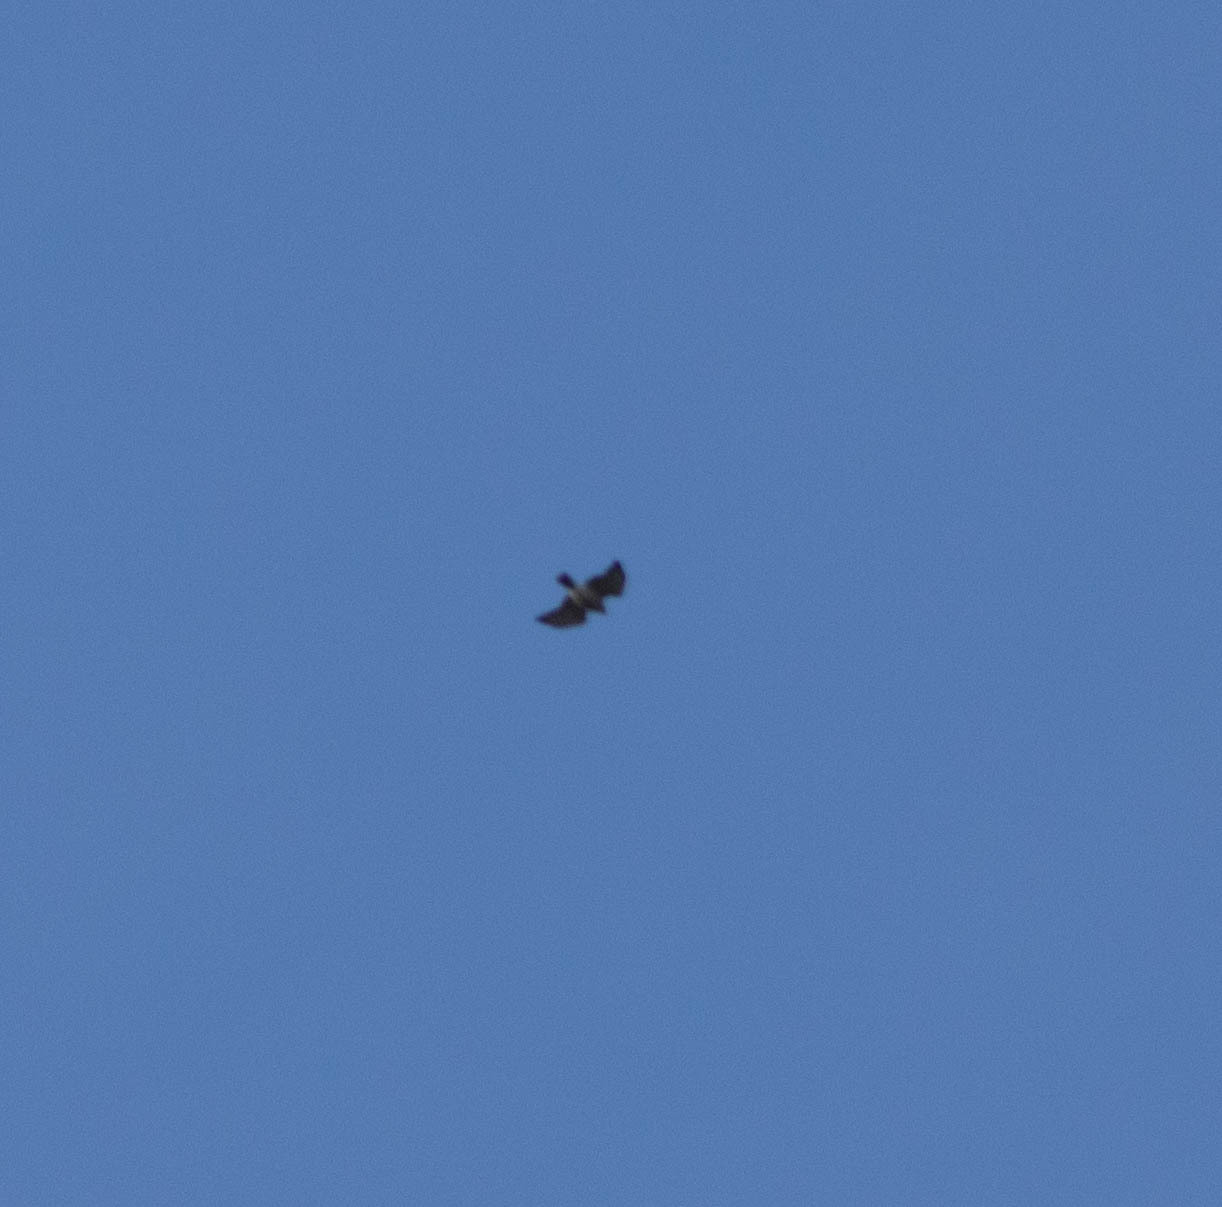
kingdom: Animalia
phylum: Chordata
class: Aves
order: Accipitriformes
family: Accipitridae
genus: Buteo
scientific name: Buteo platypterus
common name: Broad-winged hawk
